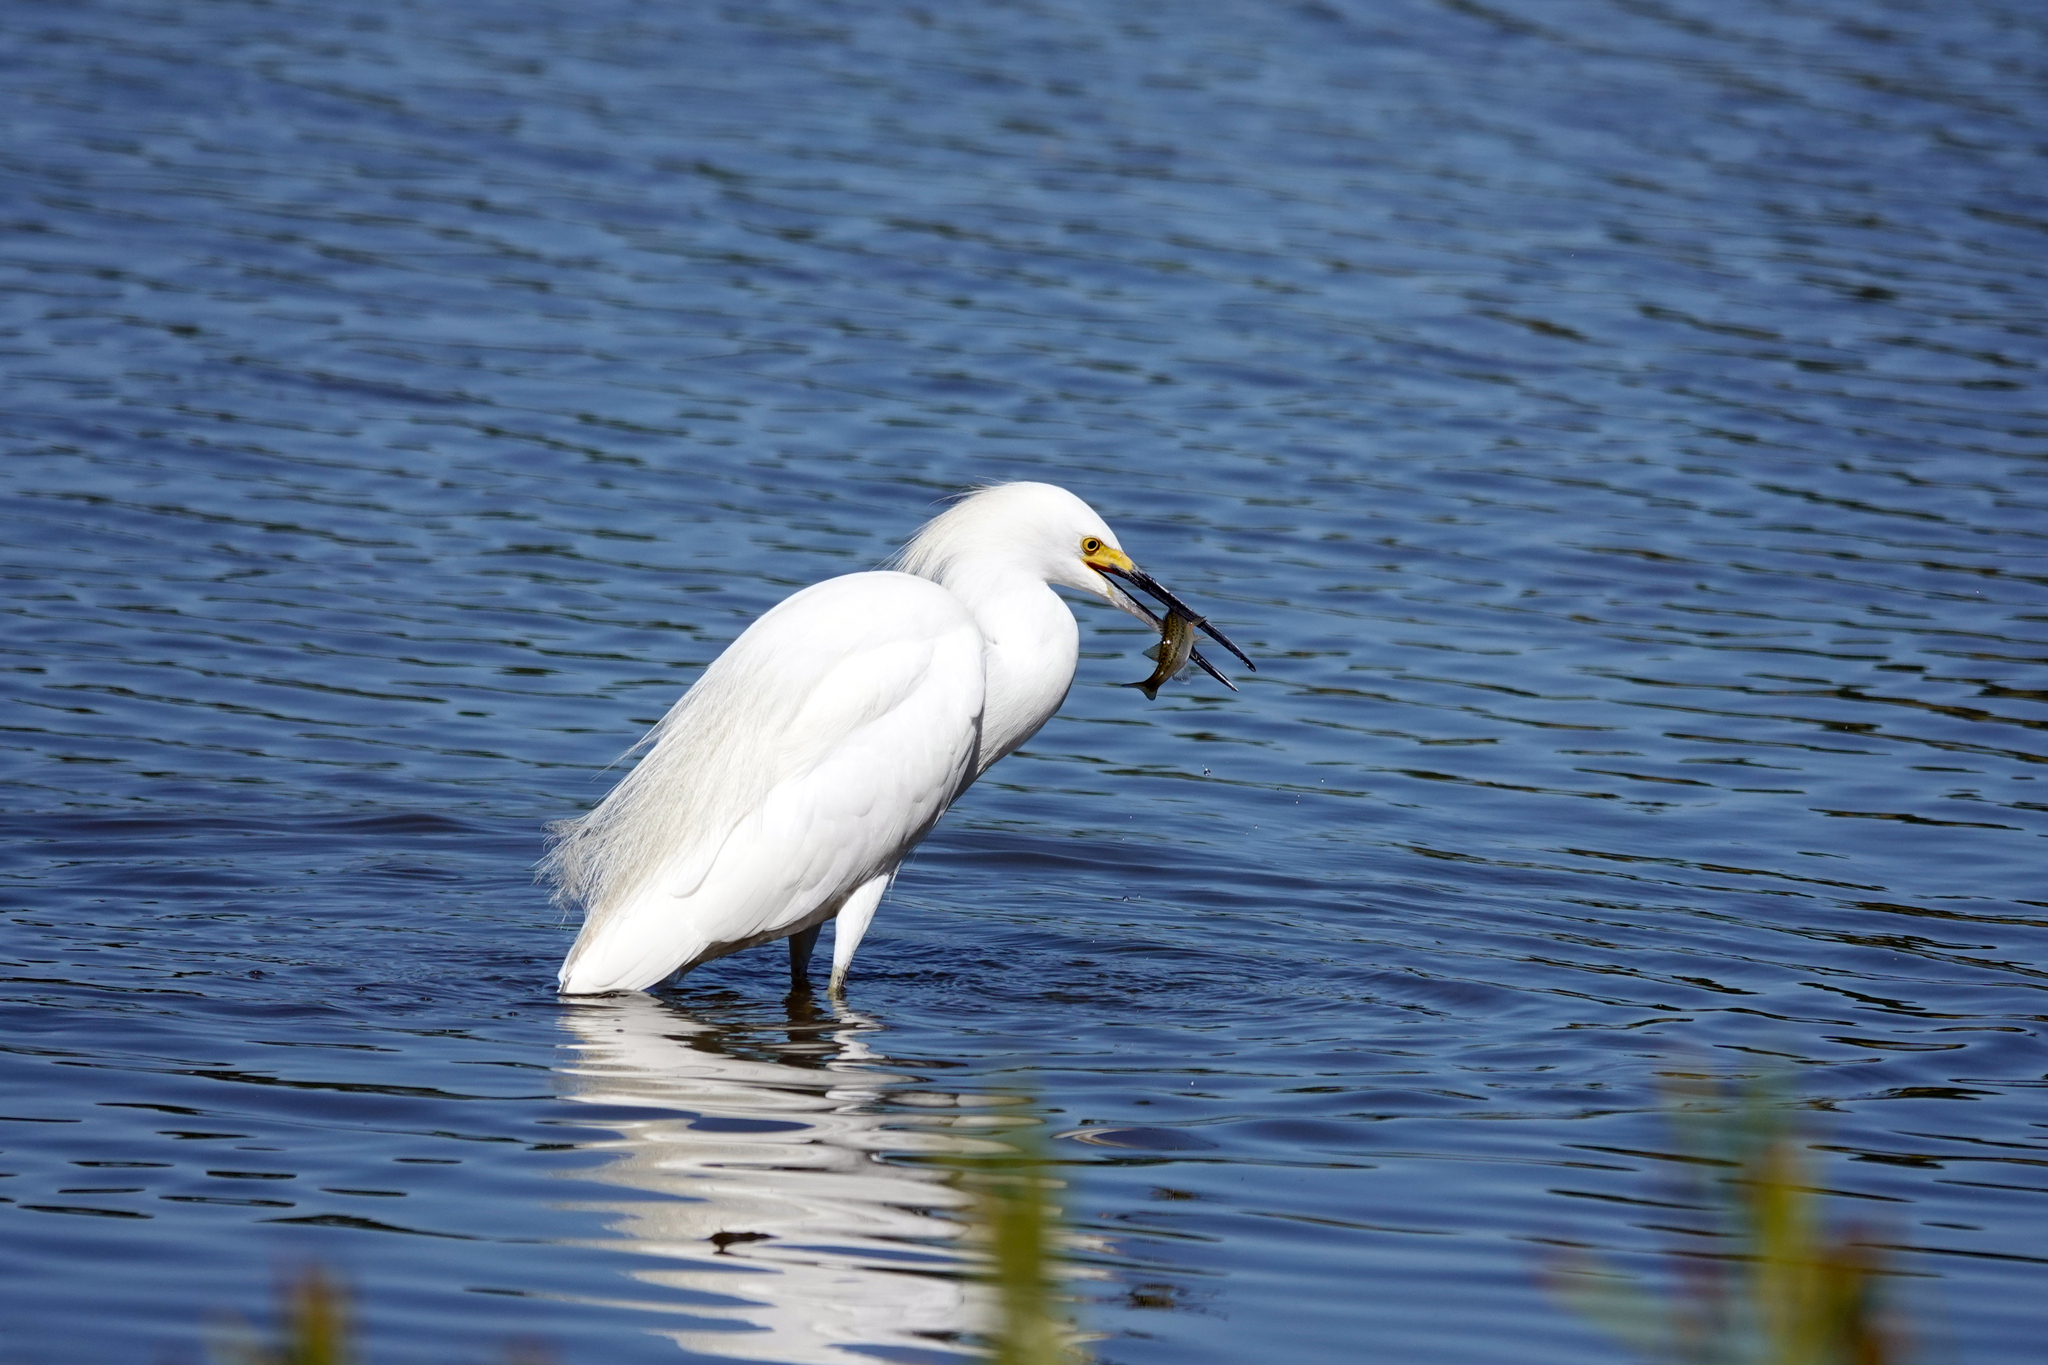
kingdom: Animalia
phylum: Chordata
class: Aves
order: Pelecaniformes
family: Ardeidae
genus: Egretta
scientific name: Egretta thula
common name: Snowy egret
